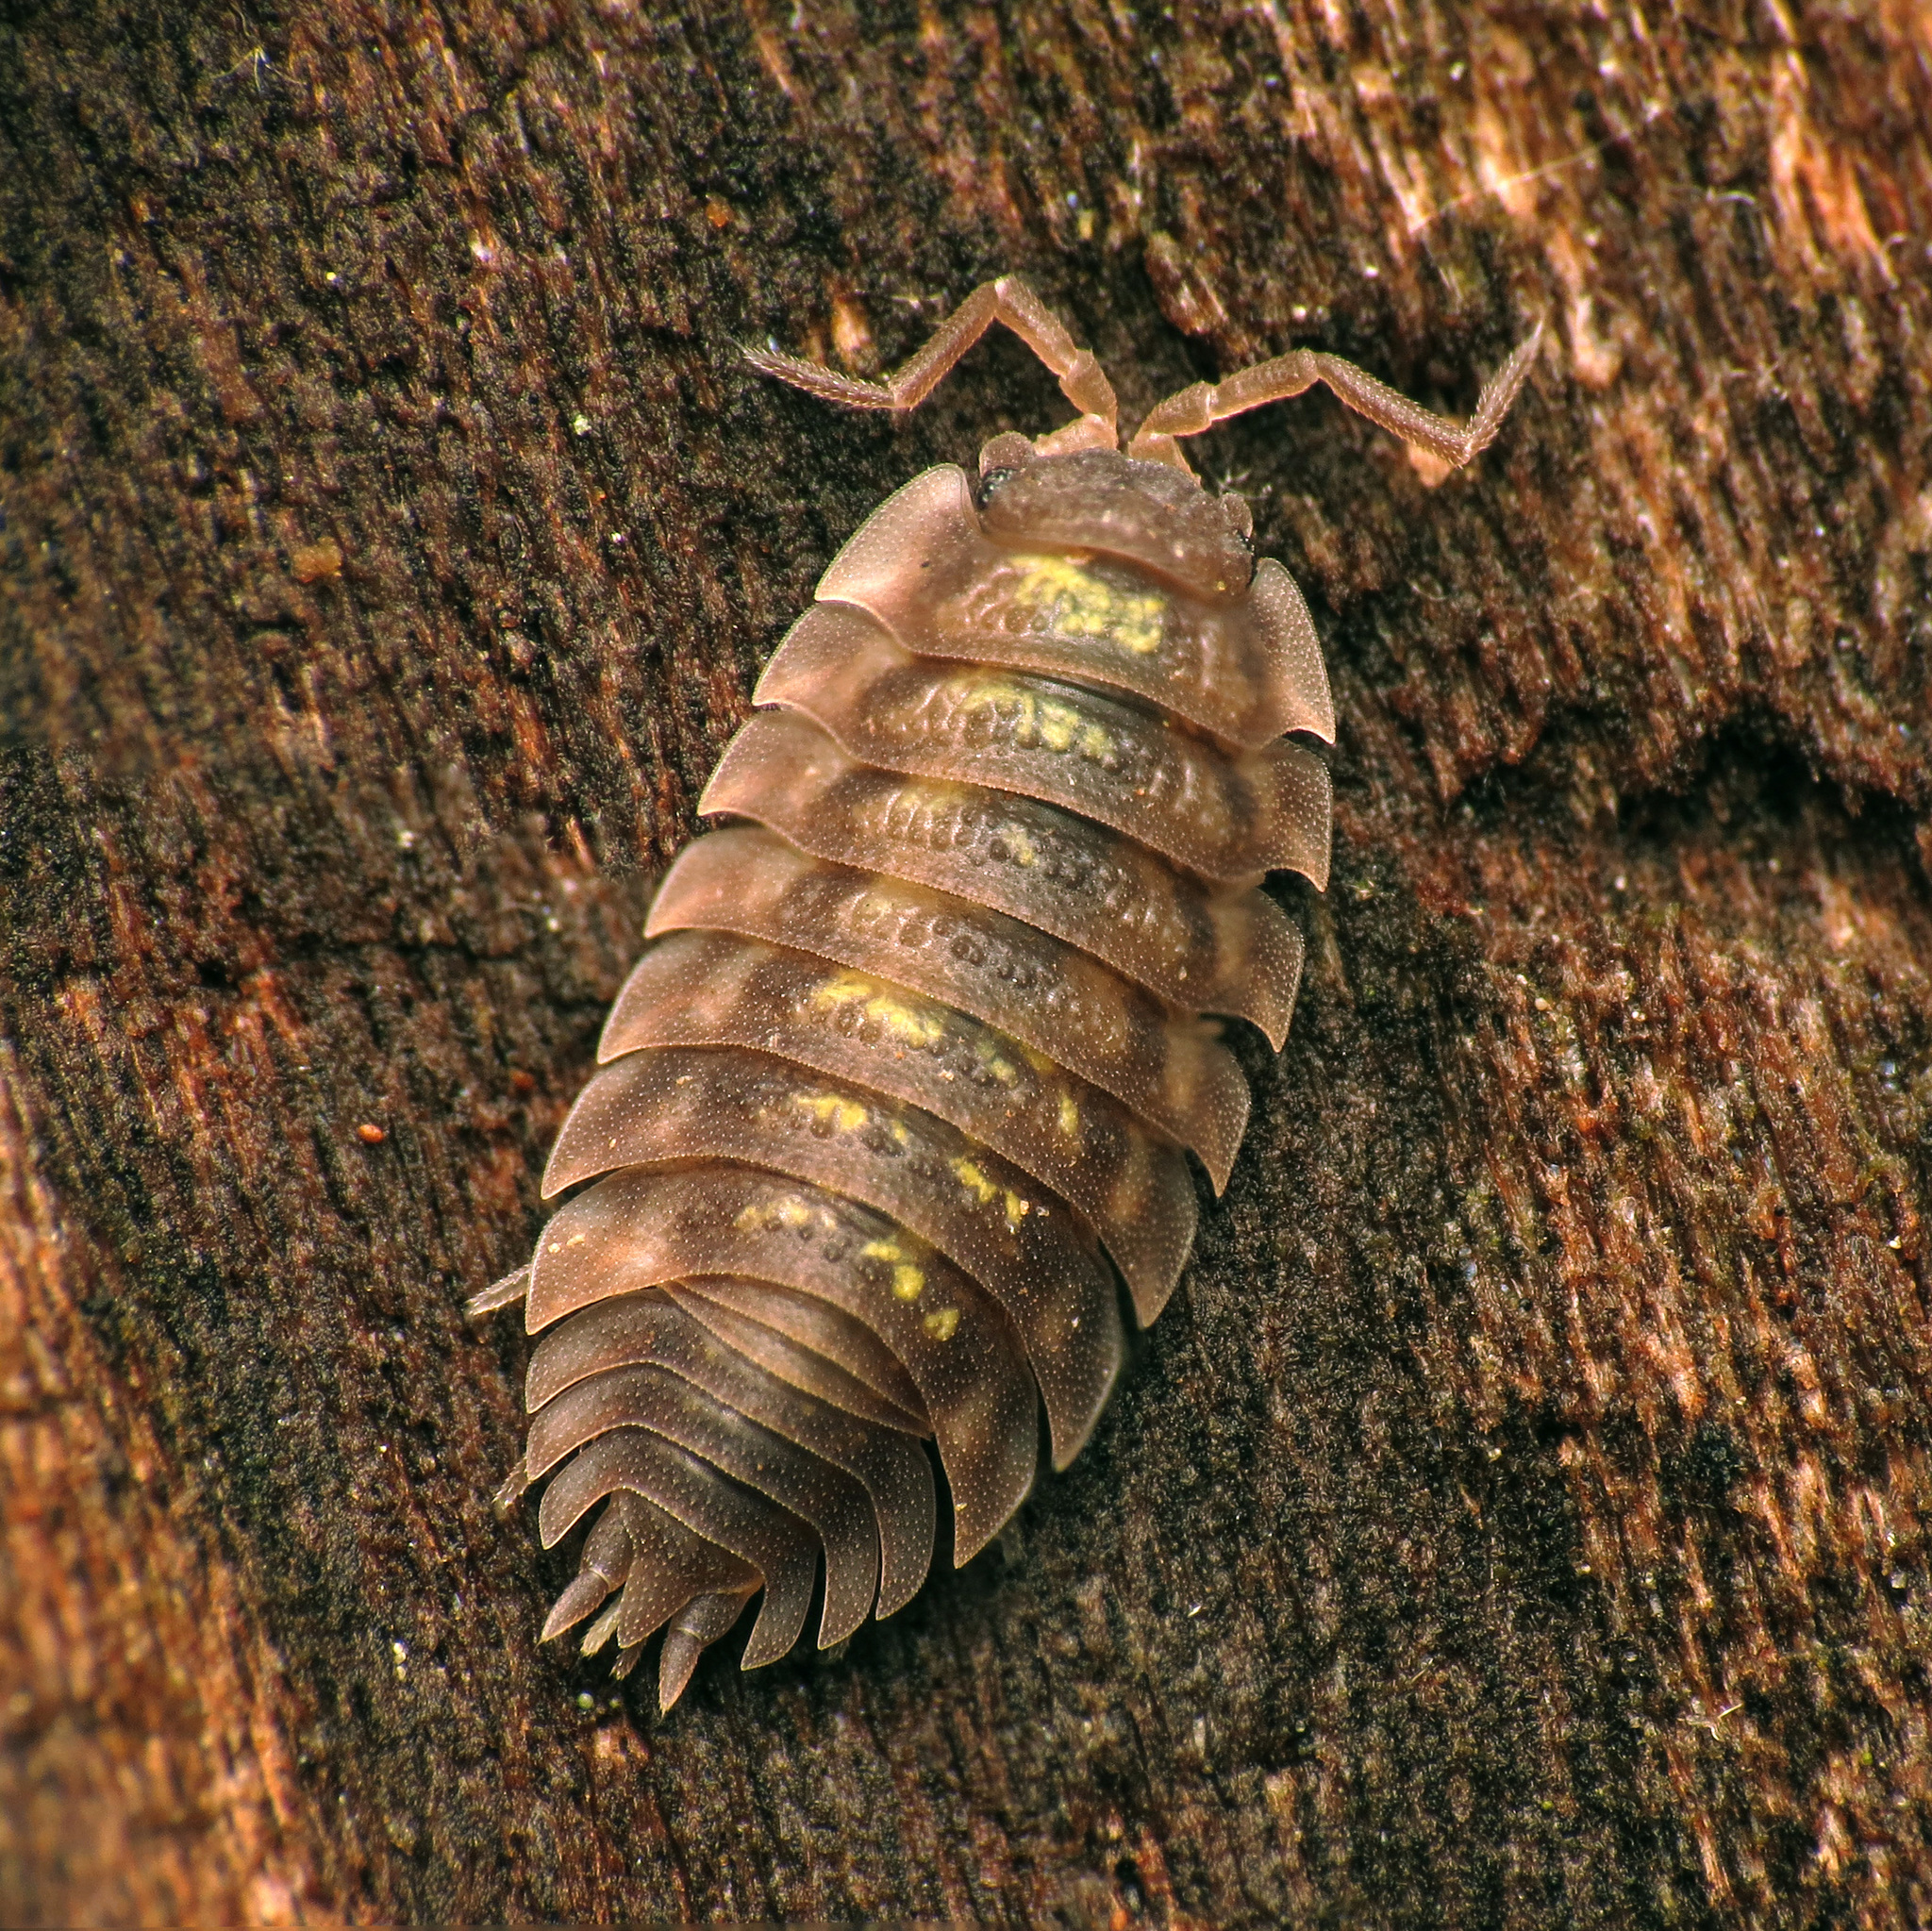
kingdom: Animalia
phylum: Arthropoda
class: Malacostraca
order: Isopoda
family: Oniscidae
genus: Oniscus
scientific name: Oniscus asellus
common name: Common shiny woodlouse
